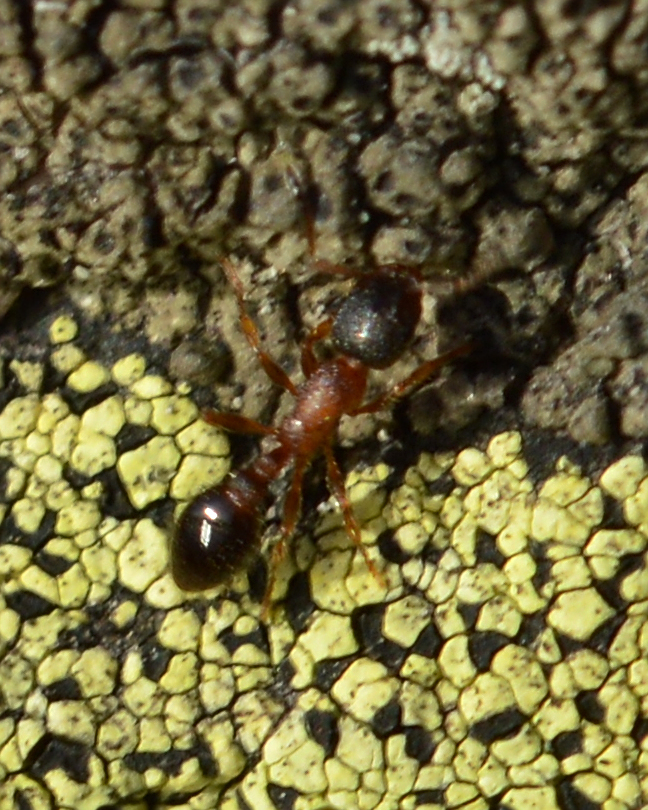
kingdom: Animalia
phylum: Arthropoda
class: Insecta
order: Hymenoptera
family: Formicidae
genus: Leptothorax
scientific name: Leptothorax acervorum
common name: Slender ant
